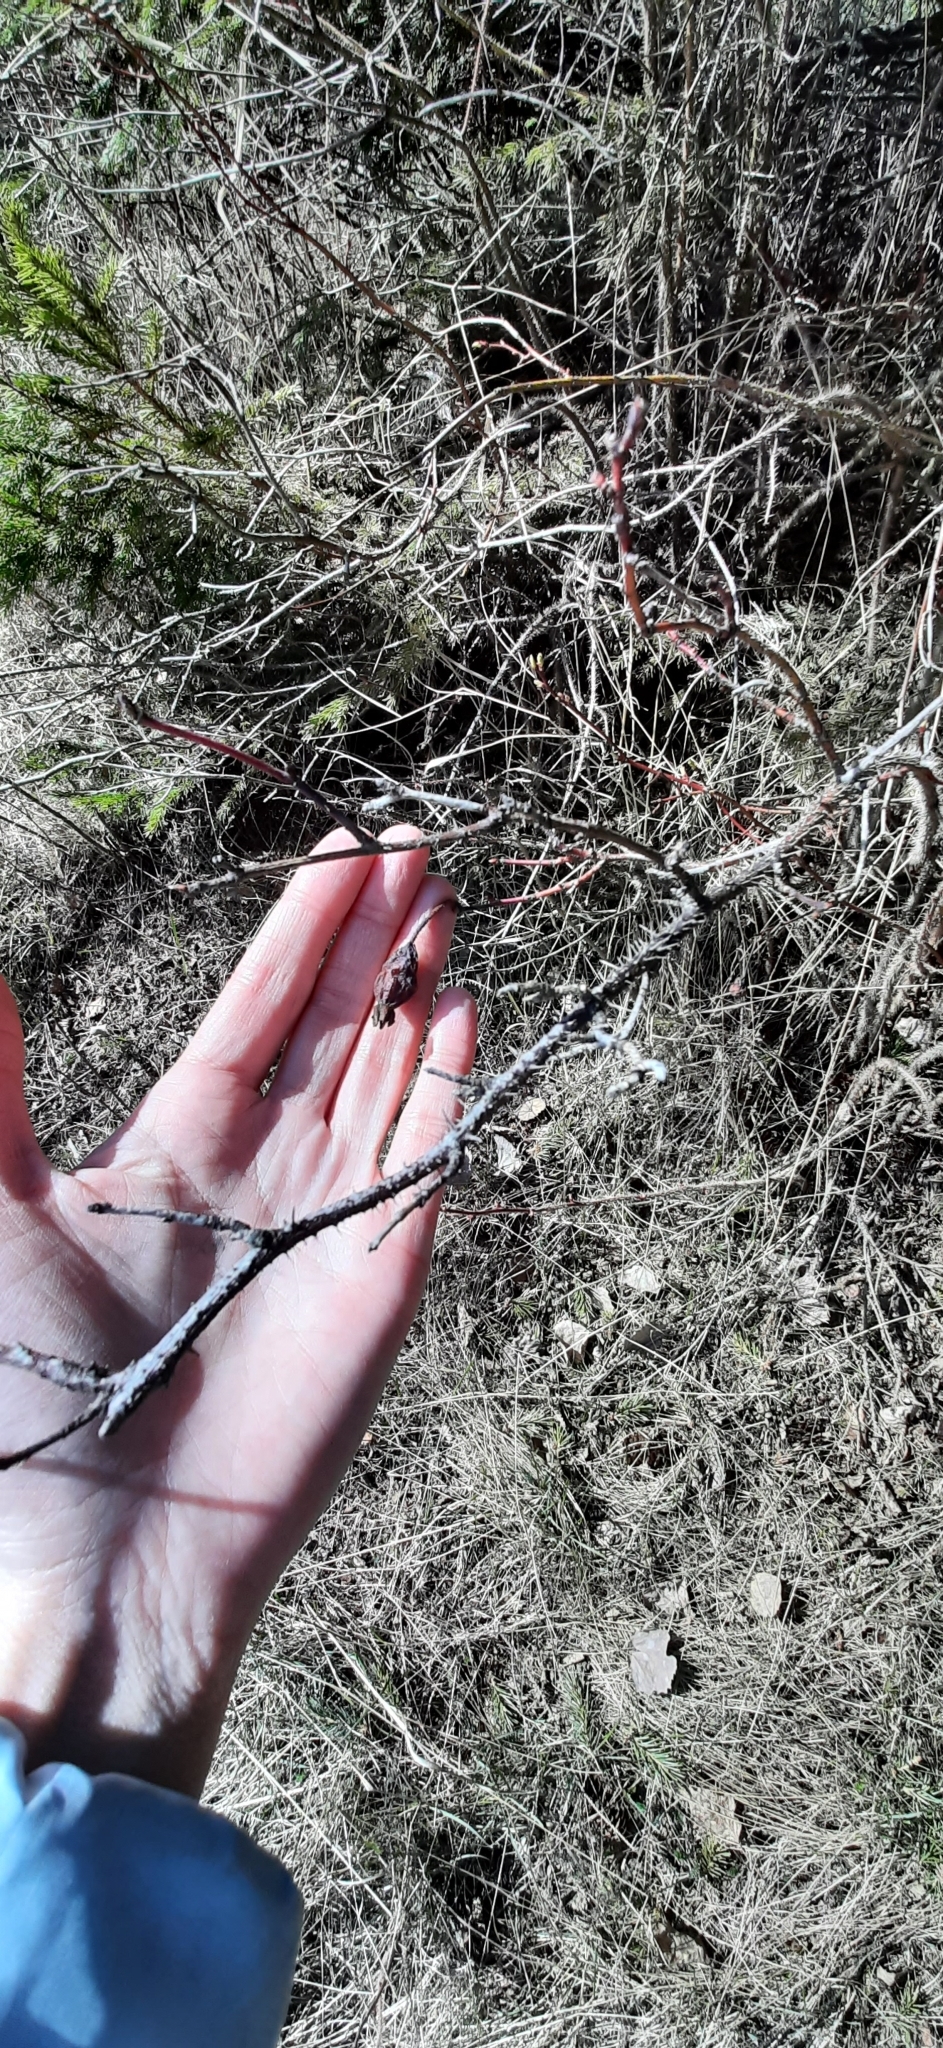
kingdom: Plantae
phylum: Tracheophyta
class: Magnoliopsida
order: Rosales
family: Rosaceae
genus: Rosa
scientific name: Rosa acicularis
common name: Prickly rose
